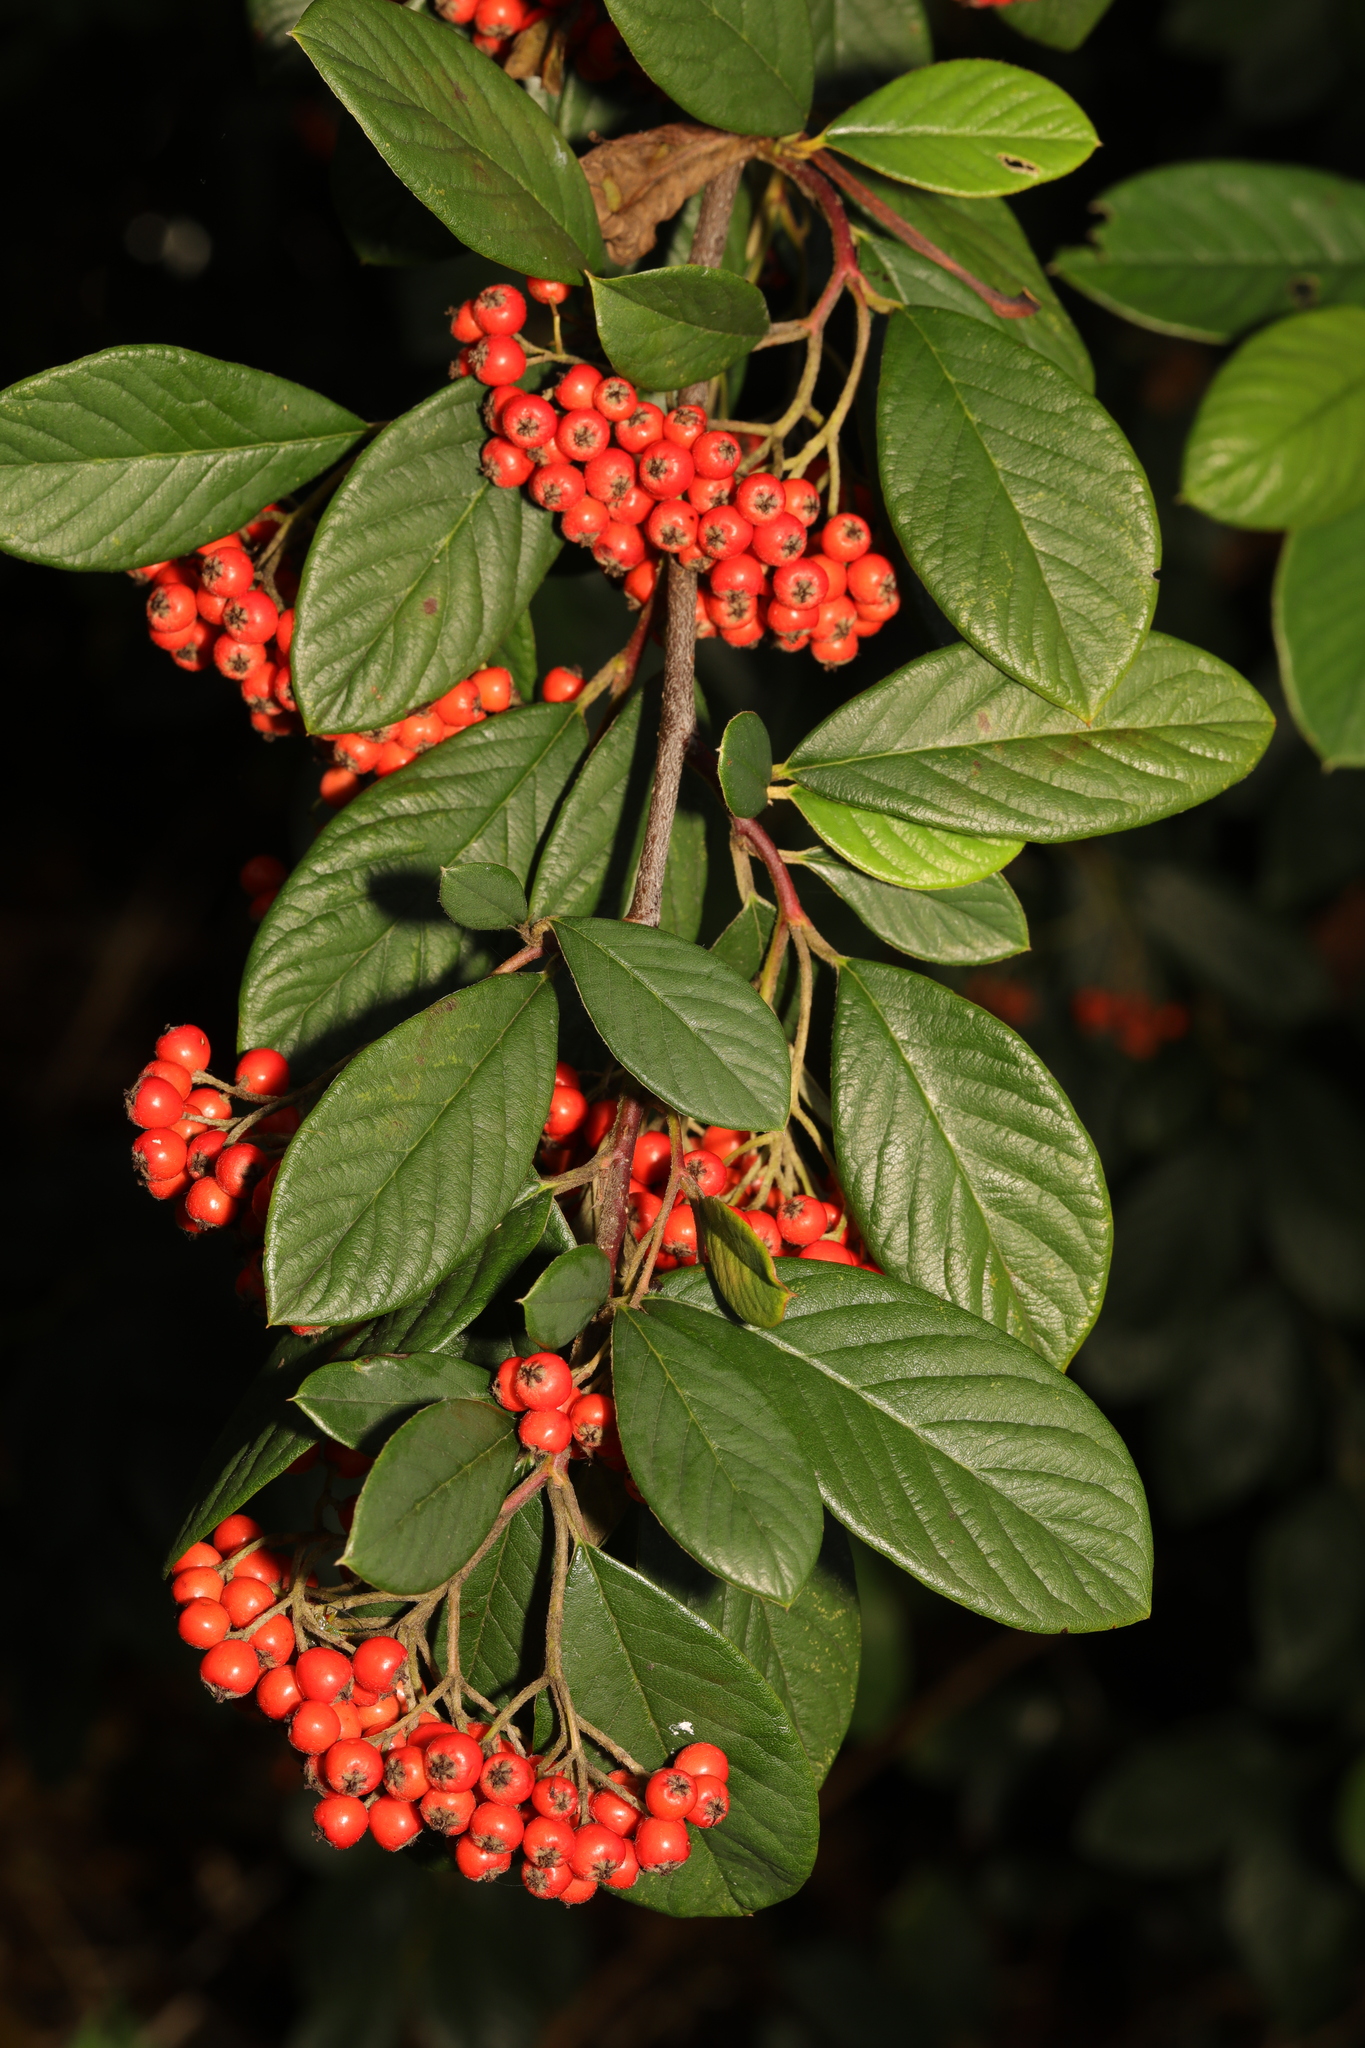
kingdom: Plantae
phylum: Tracheophyta
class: Magnoliopsida
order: Rosales
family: Rosaceae
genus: Cotoneaster
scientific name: Cotoneaster coriaceus
